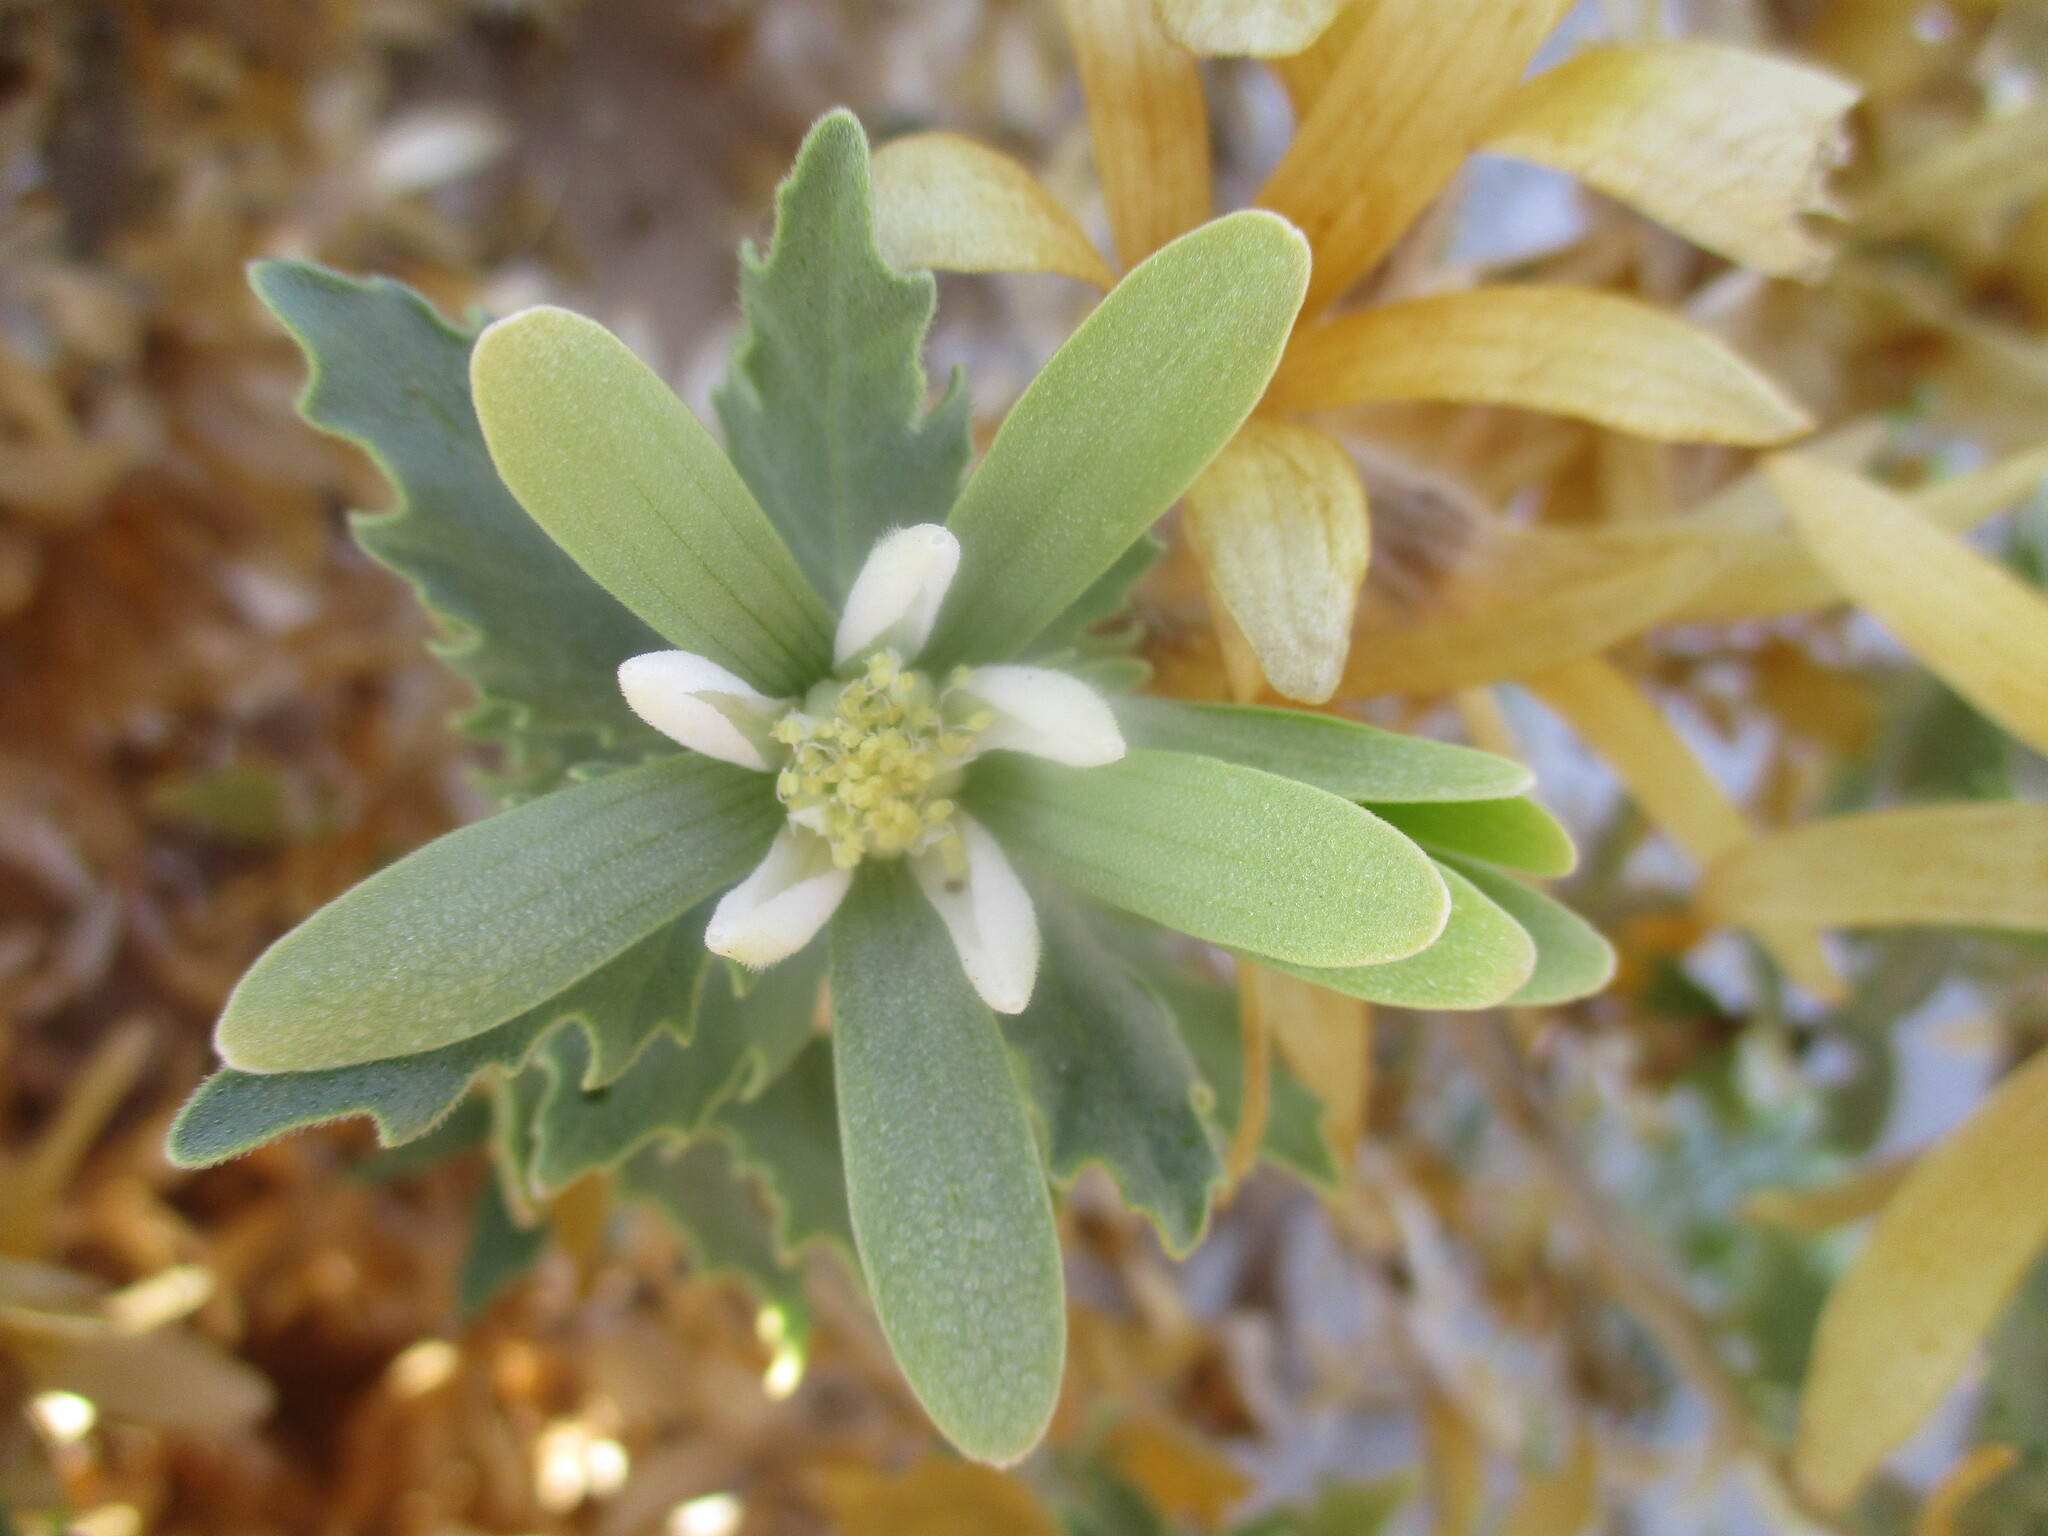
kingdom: Plantae
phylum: Tracheophyta
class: Magnoliopsida
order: Cornales
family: Loasaceae
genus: Kissenia
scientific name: Kissenia capensis
